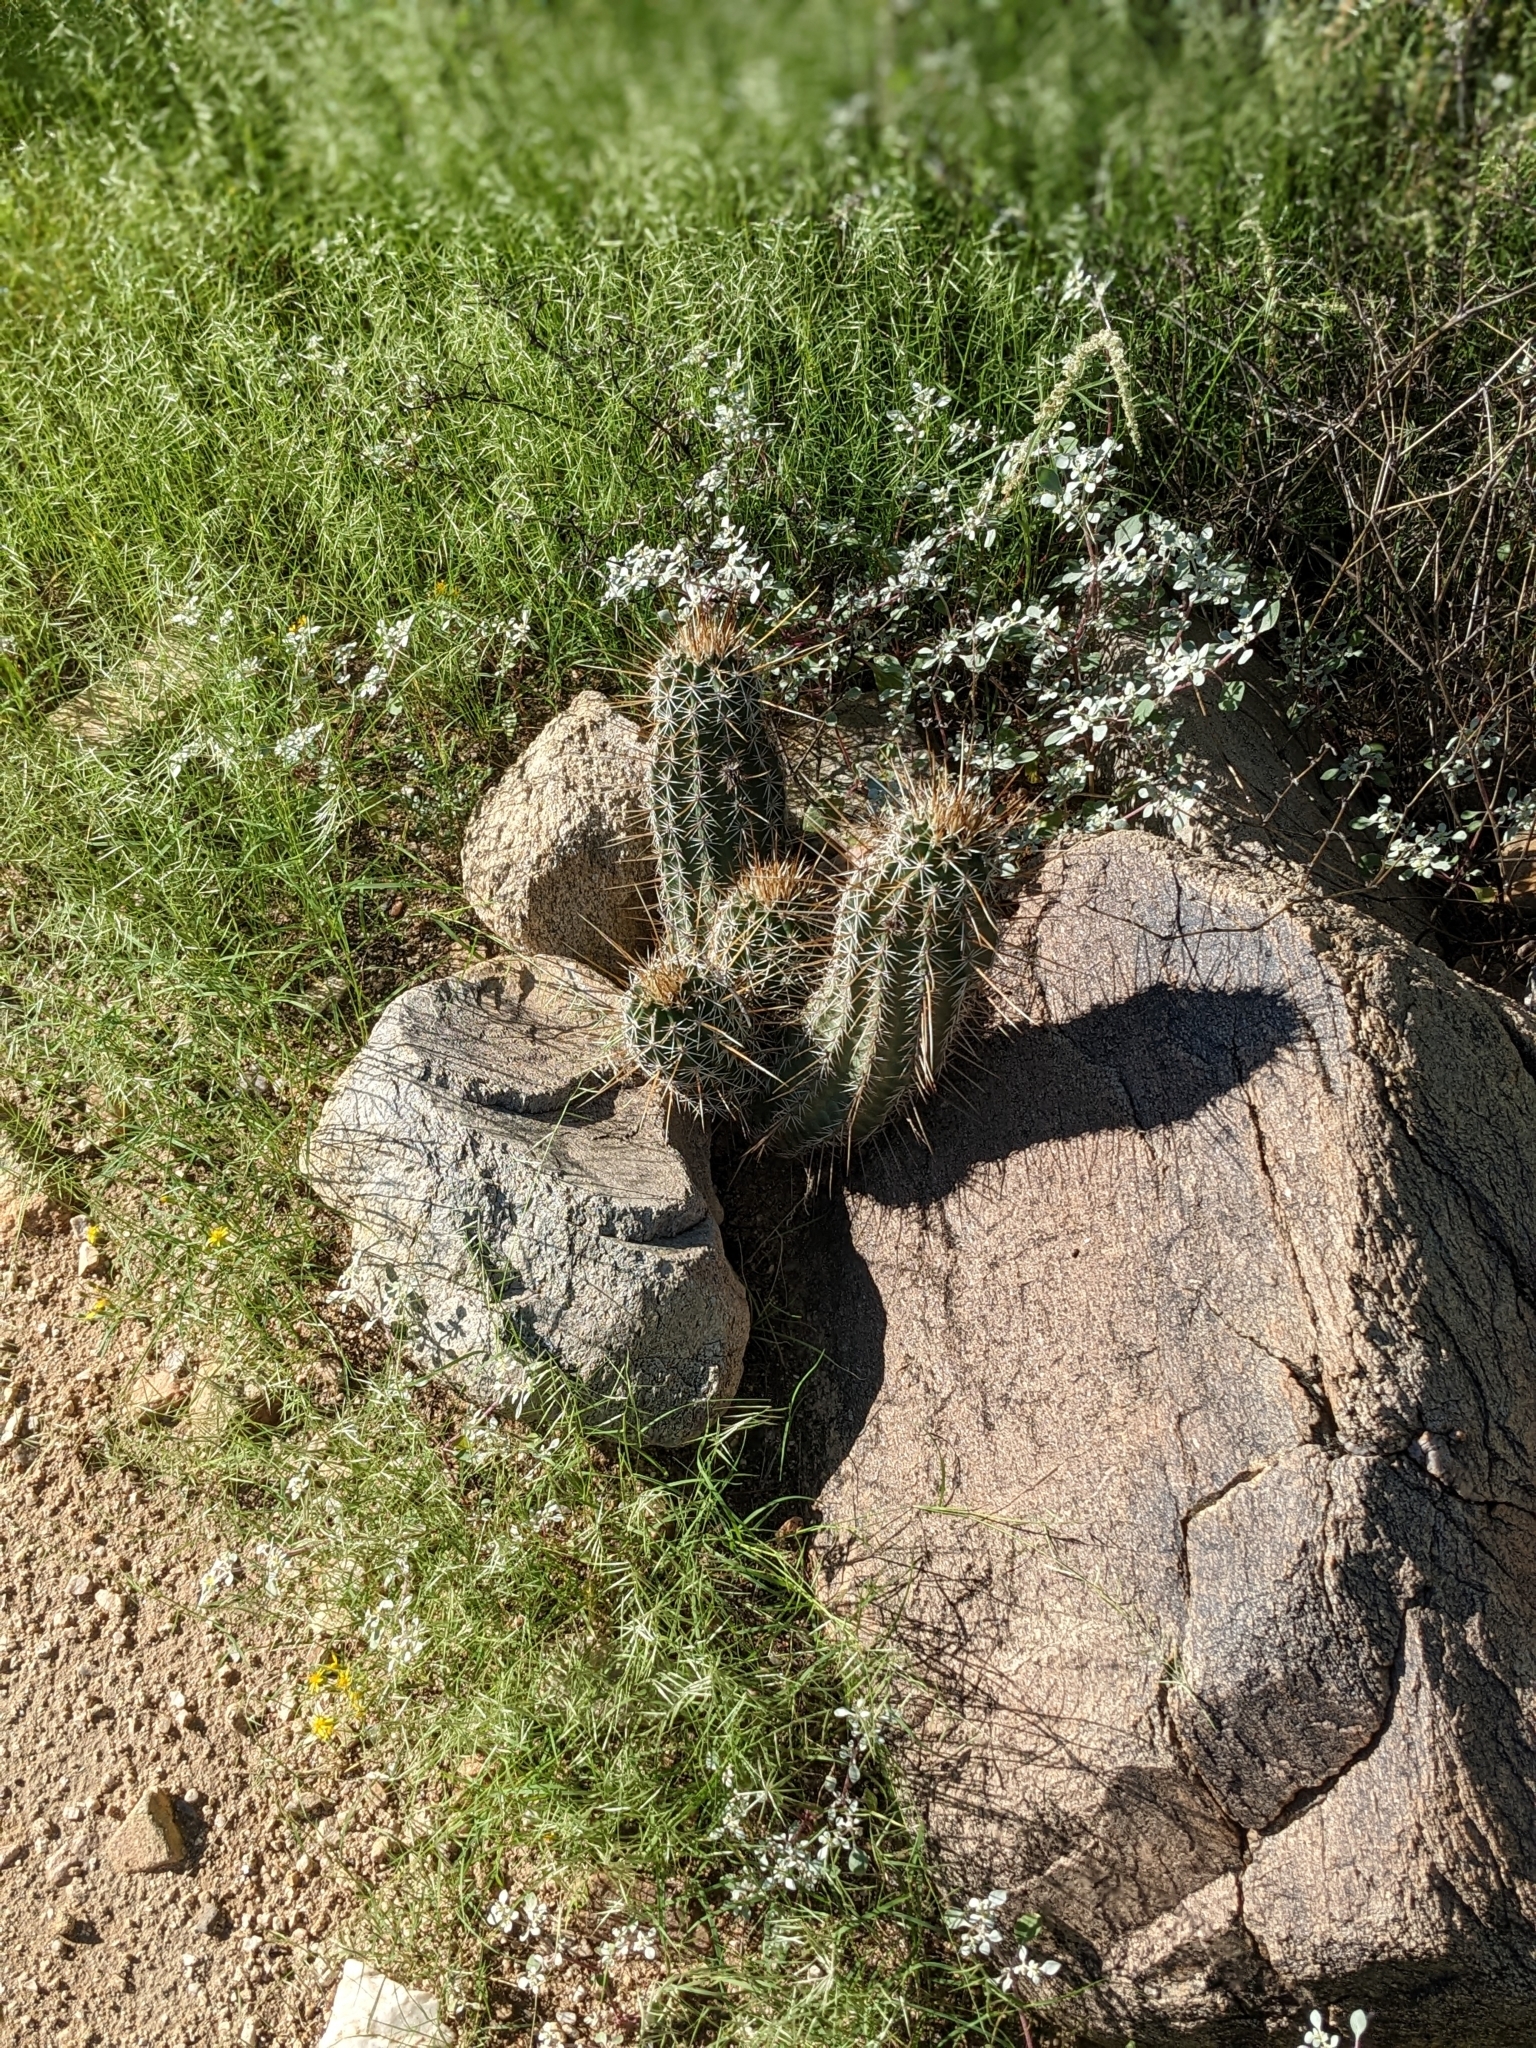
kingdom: Plantae
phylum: Tracheophyta
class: Magnoliopsida
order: Caryophyllales
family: Cactaceae
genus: Echinocereus
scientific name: Echinocereus engelmannii
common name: Engelmann's hedgehog cactus
